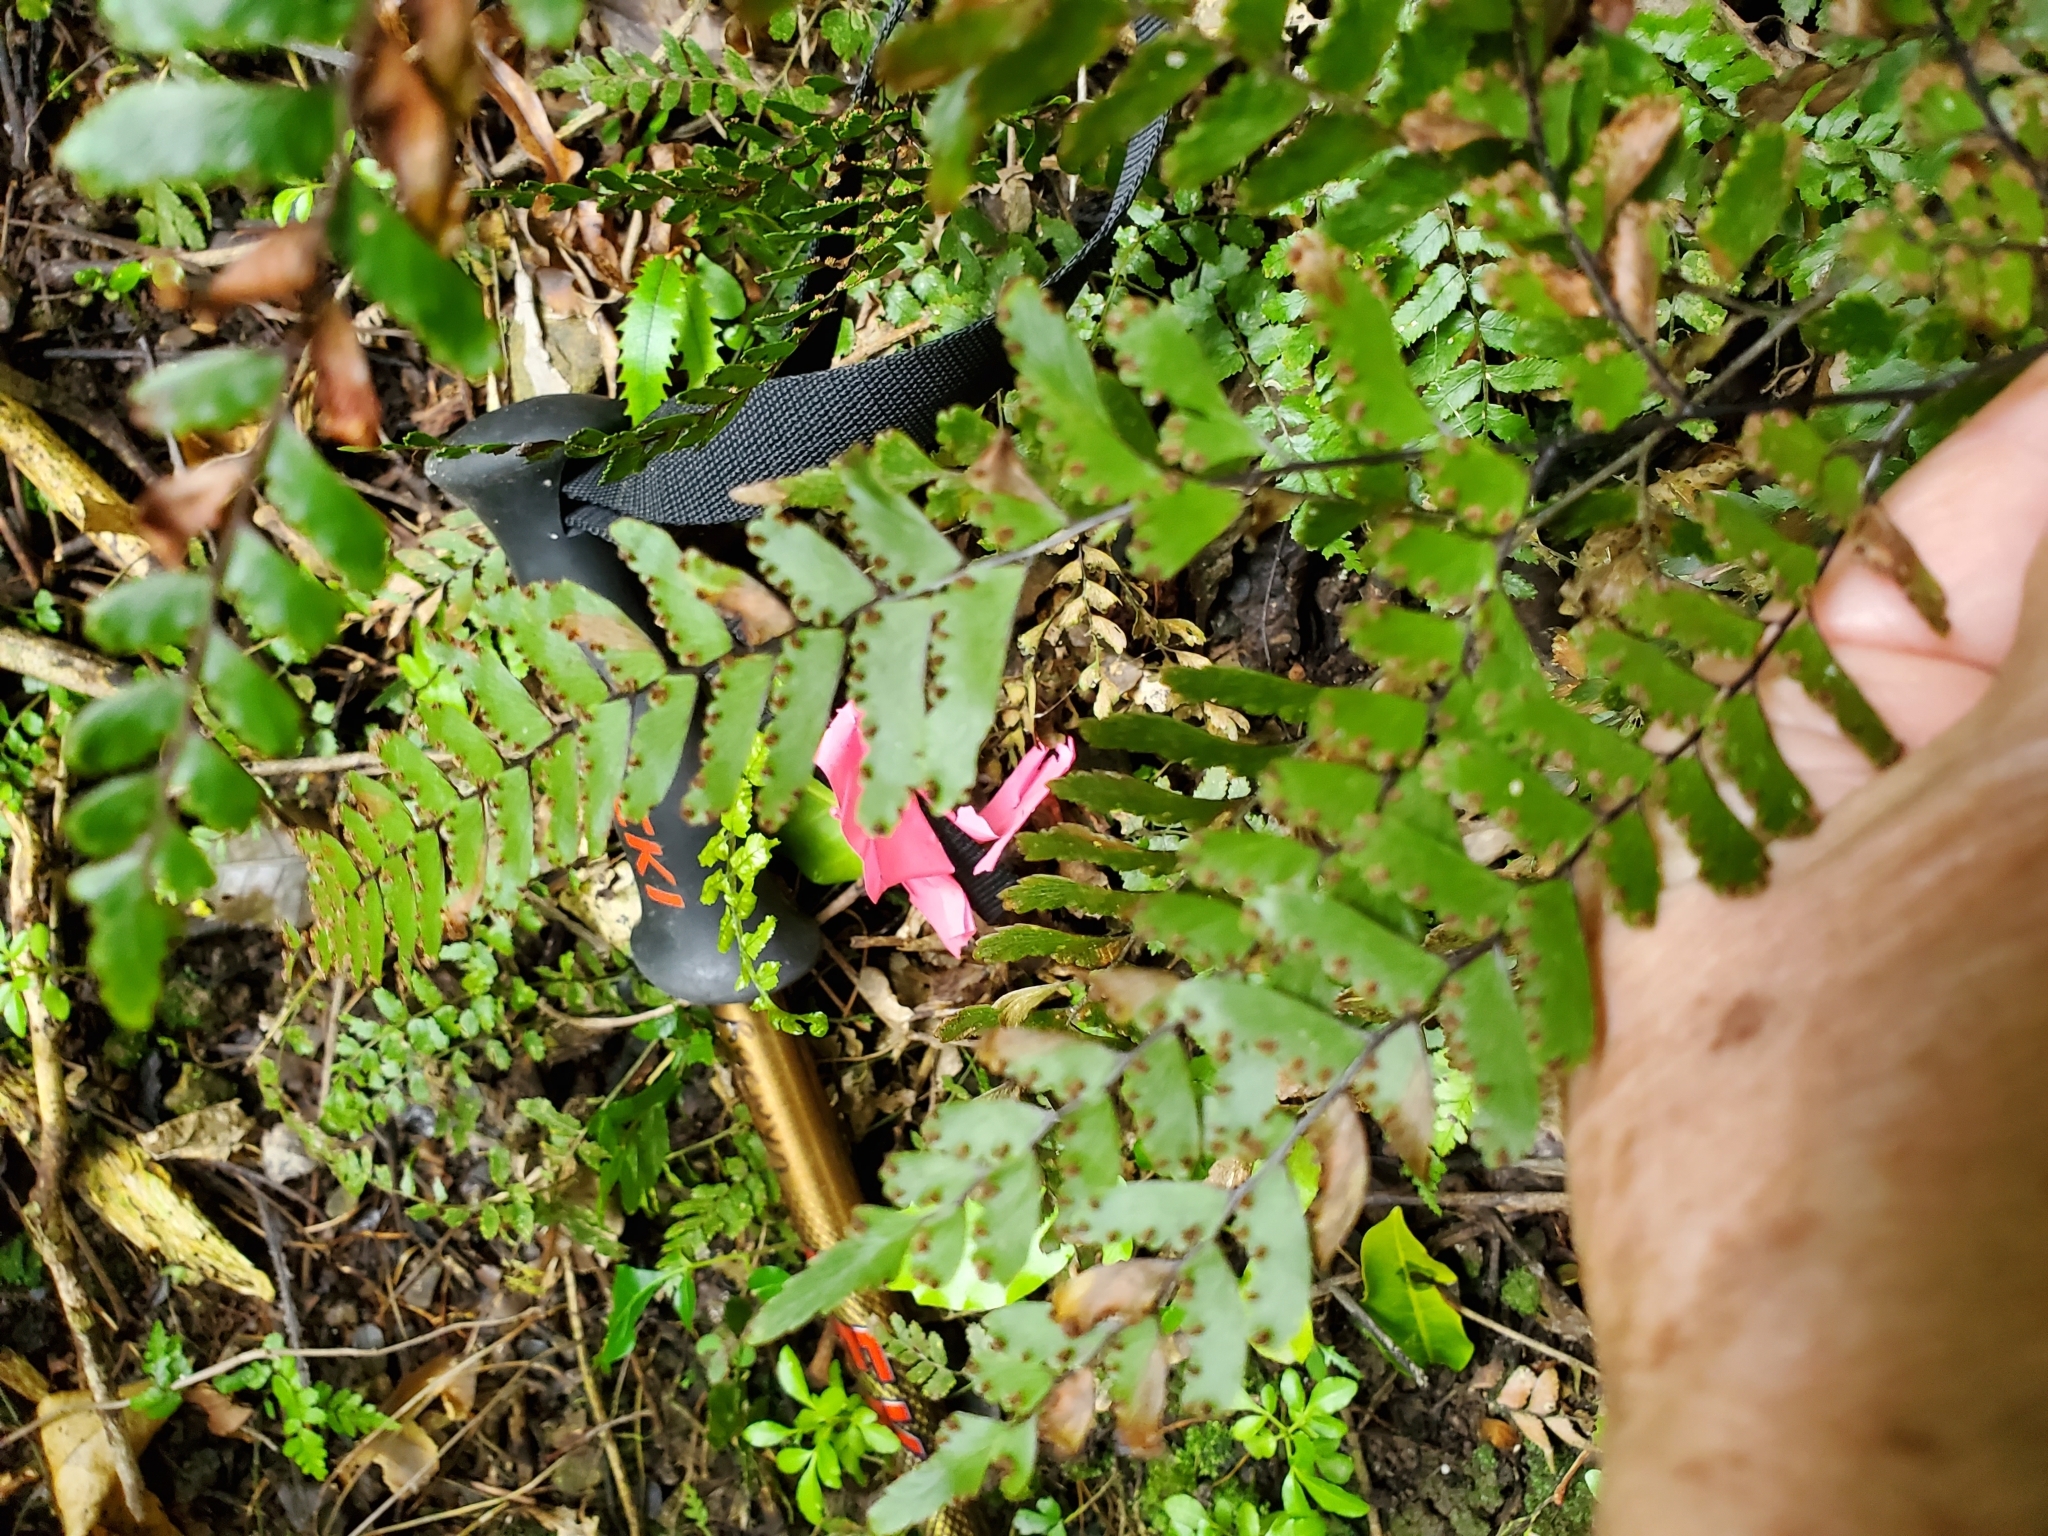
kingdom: Plantae
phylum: Tracheophyta
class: Polypodiopsida
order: Polypodiales
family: Pteridaceae
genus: Adiantum
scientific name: Adiantum fulvum
